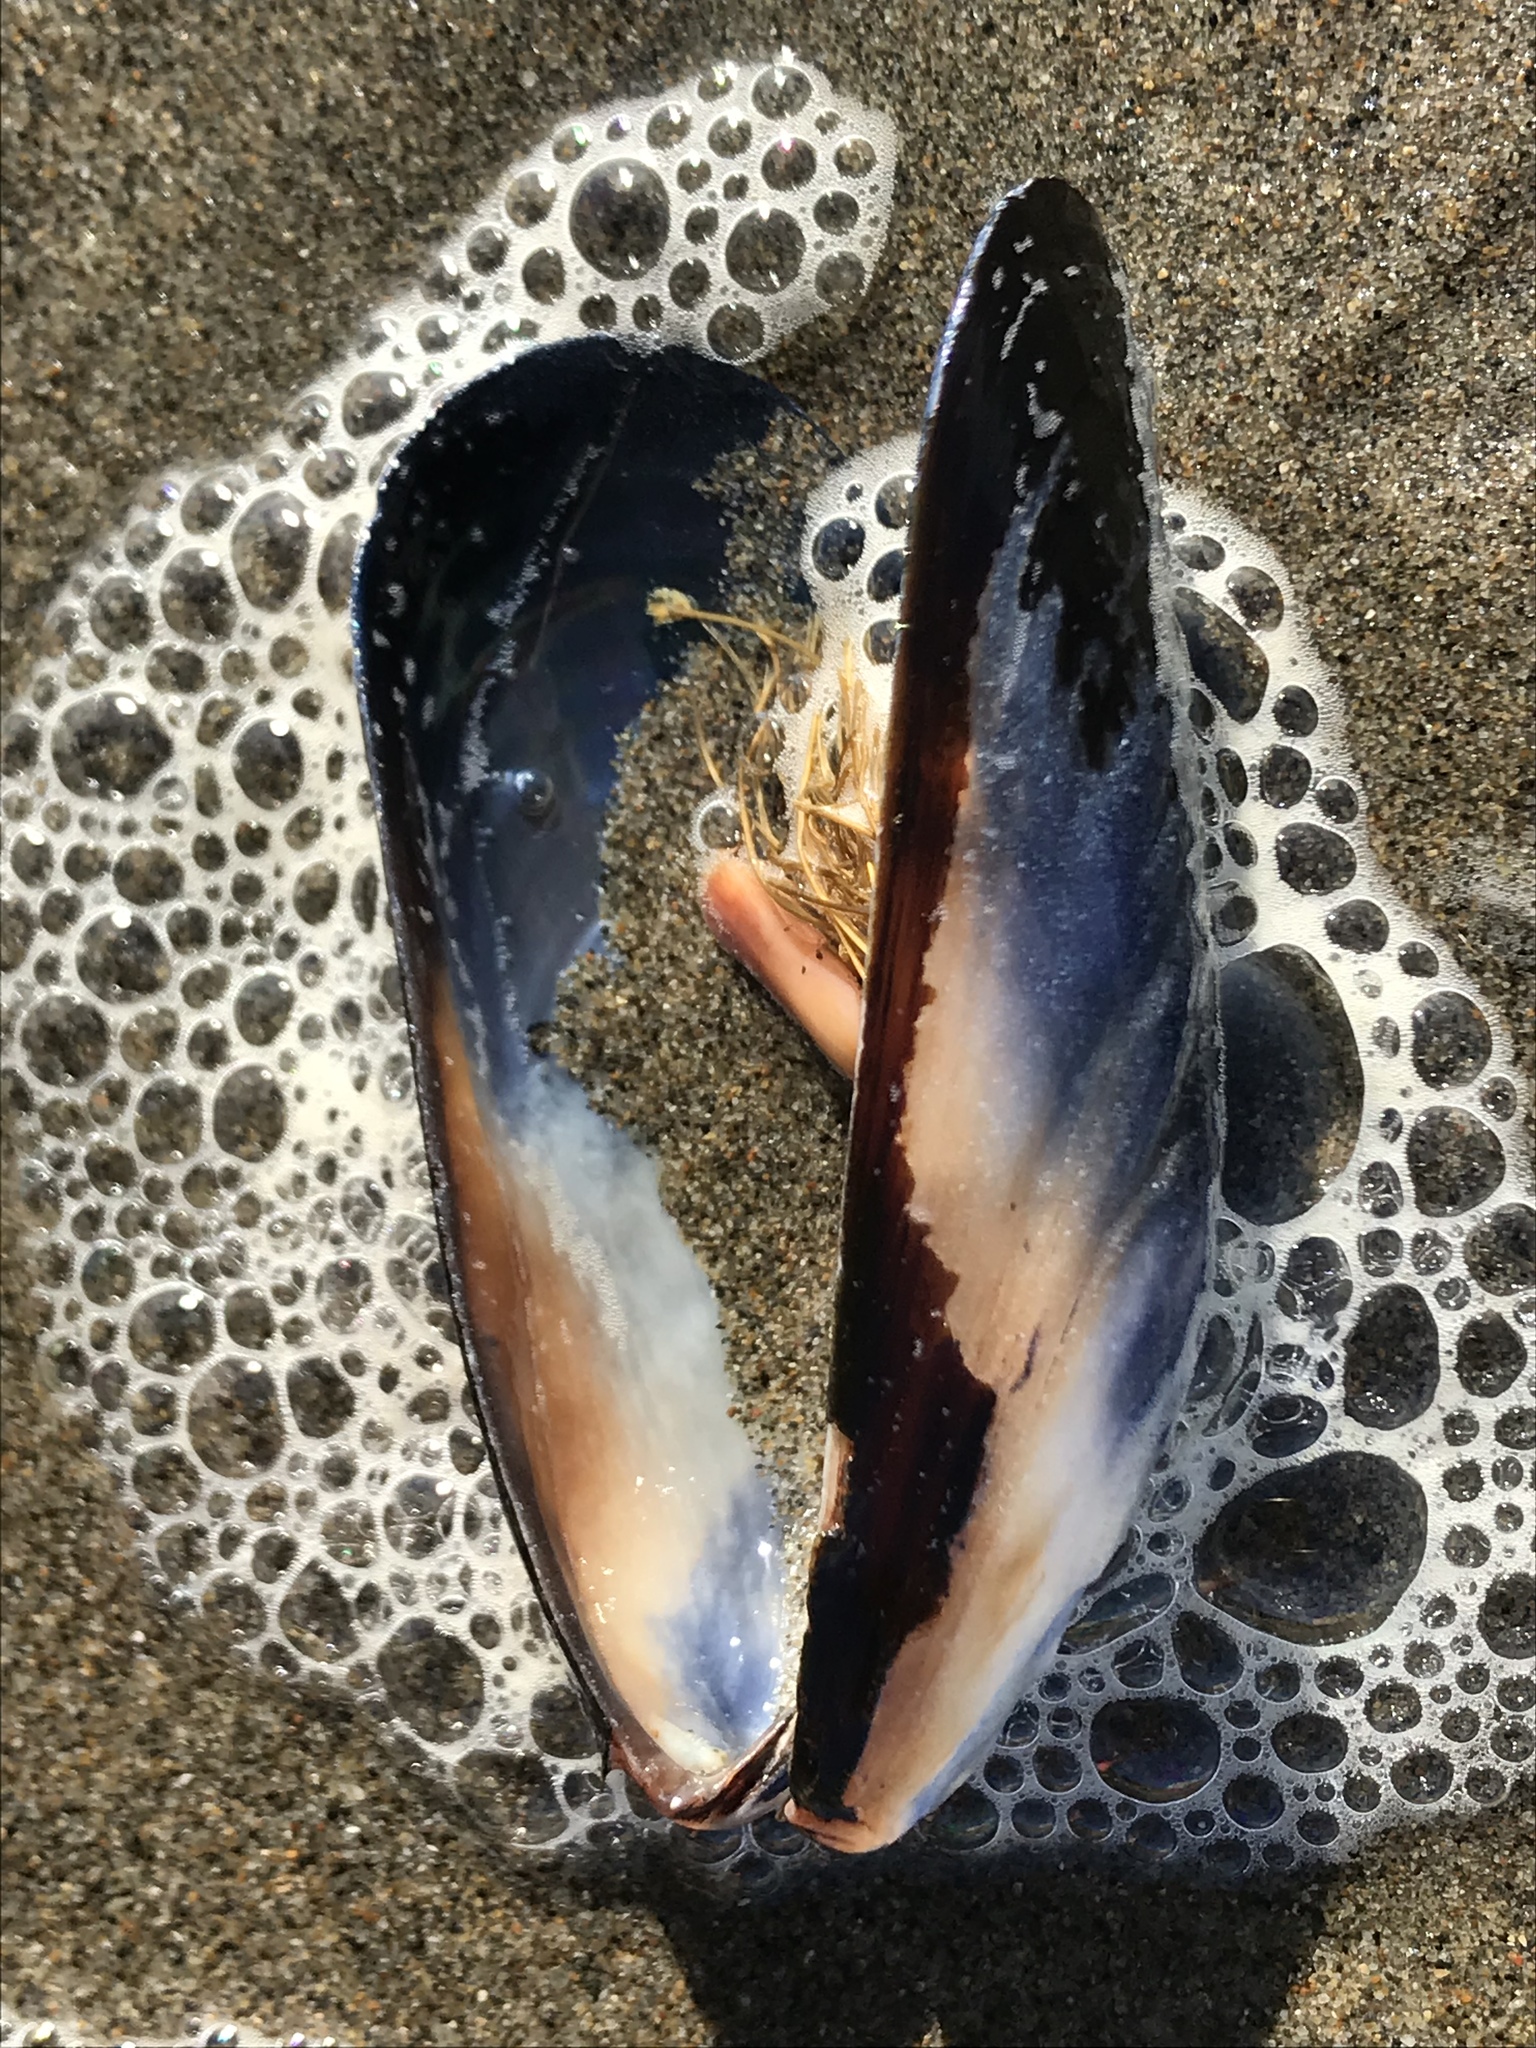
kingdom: Animalia
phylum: Mollusca
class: Bivalvia
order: Mytilida
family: Mytilidae
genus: Mytilus
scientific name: Mytilus californianus
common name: California mussel
